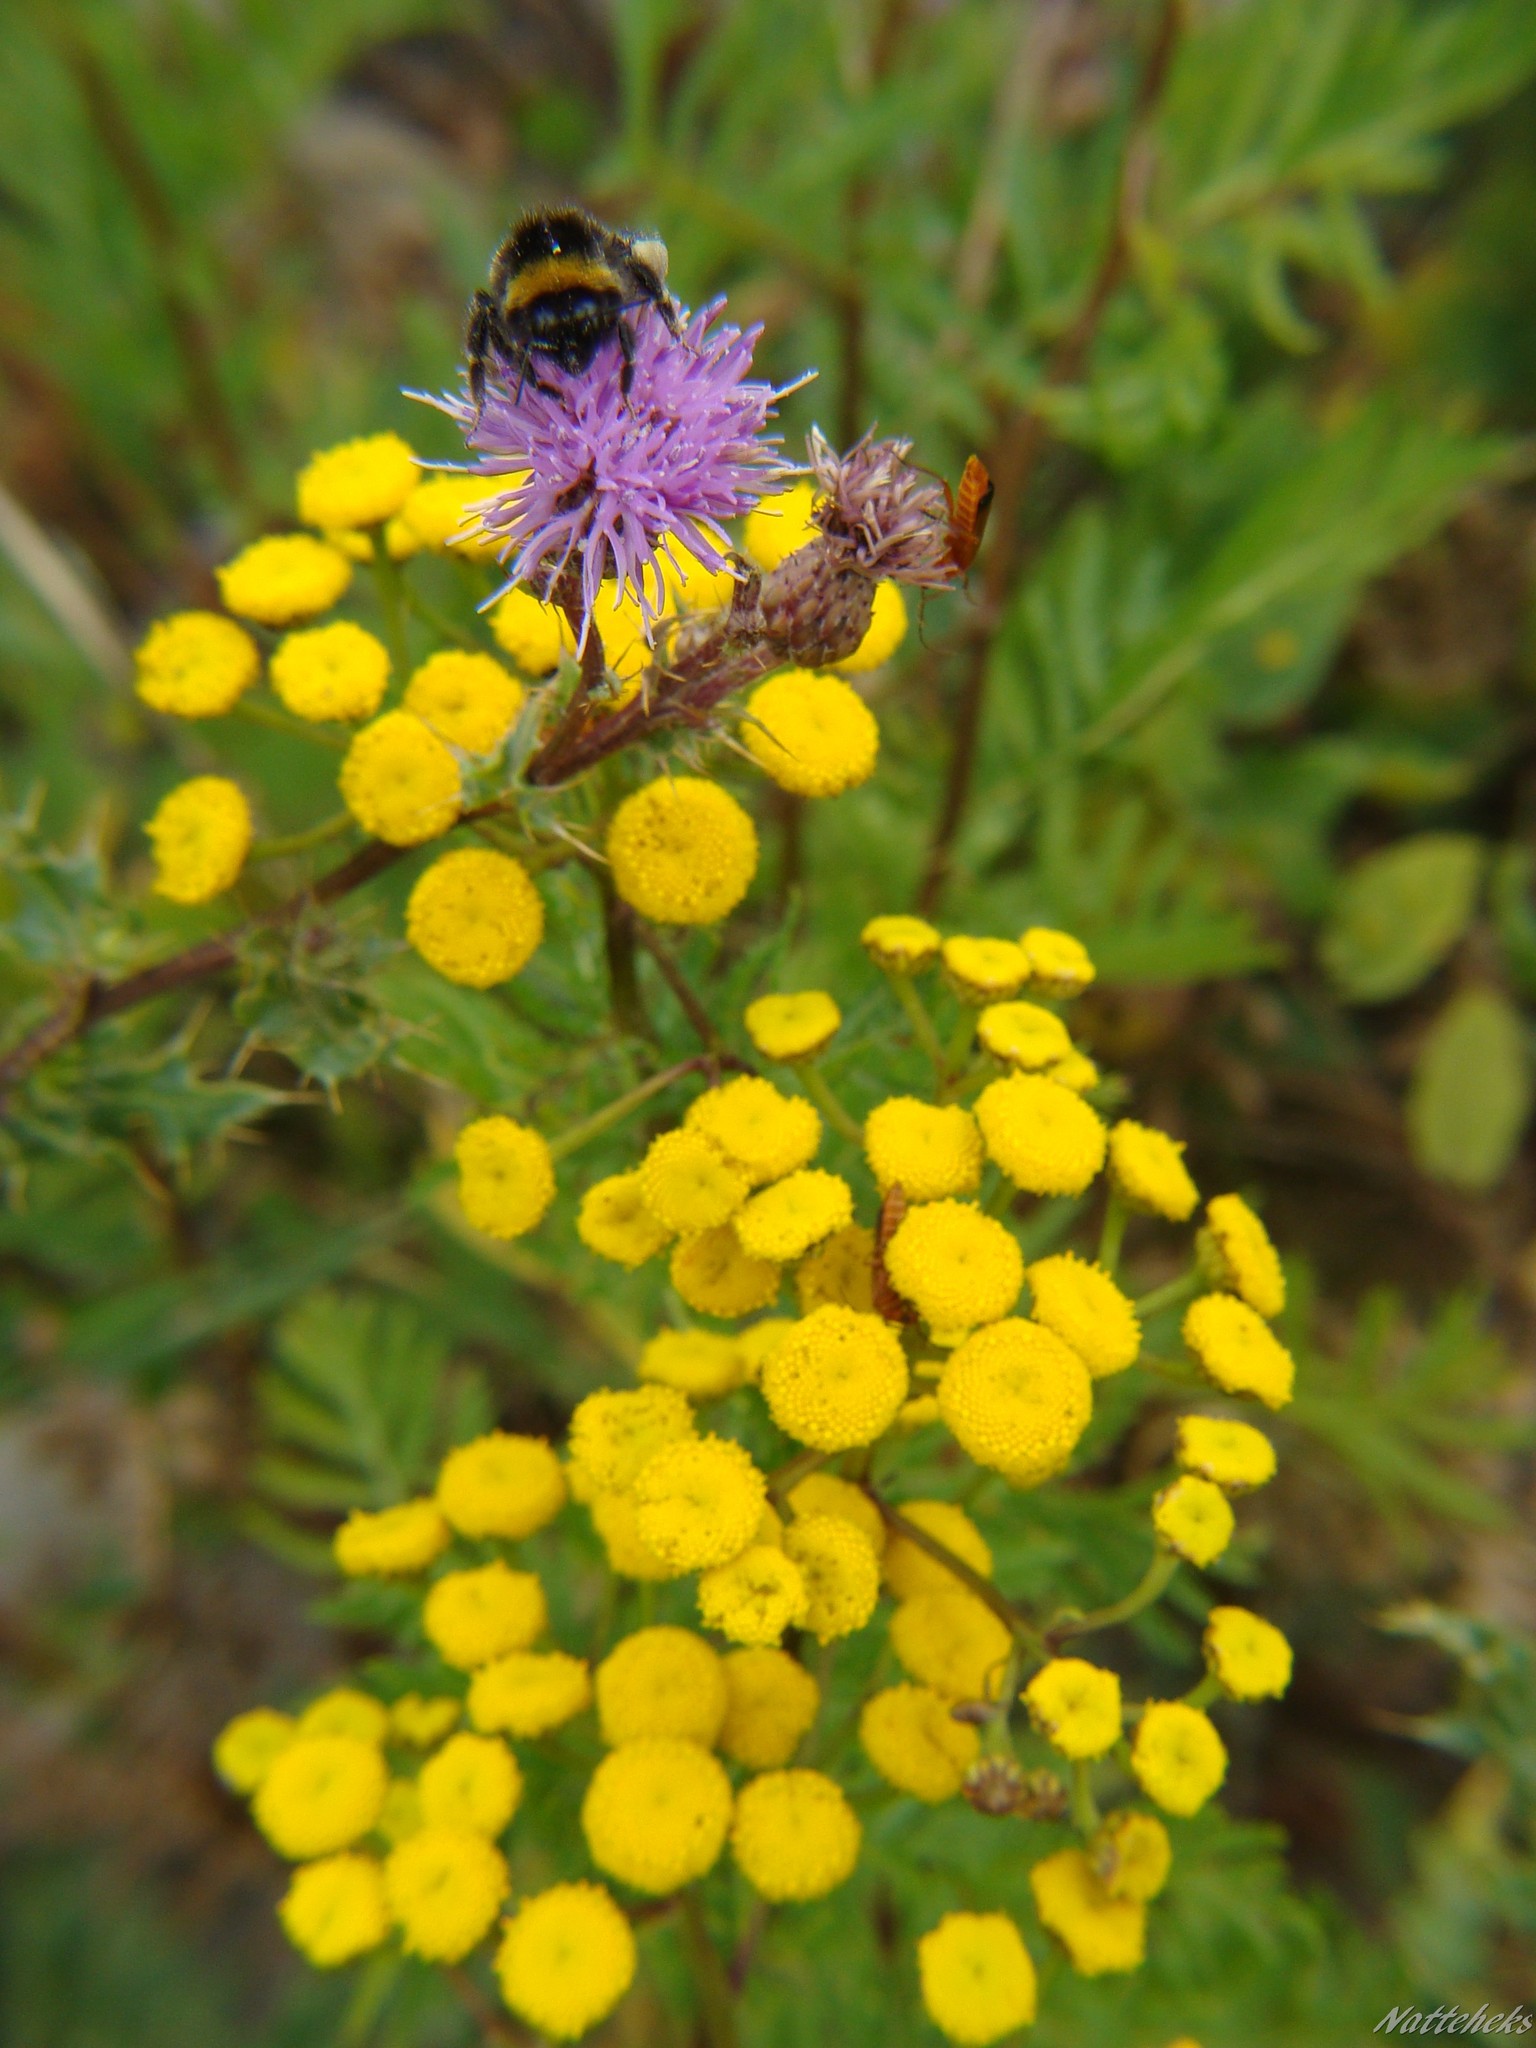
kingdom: Plantae
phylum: Tracheophyta
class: Magnoliopsida
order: Asterales
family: Asteraceae
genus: Tanacetum
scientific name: Tanacetum vulgare
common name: Common tansy
